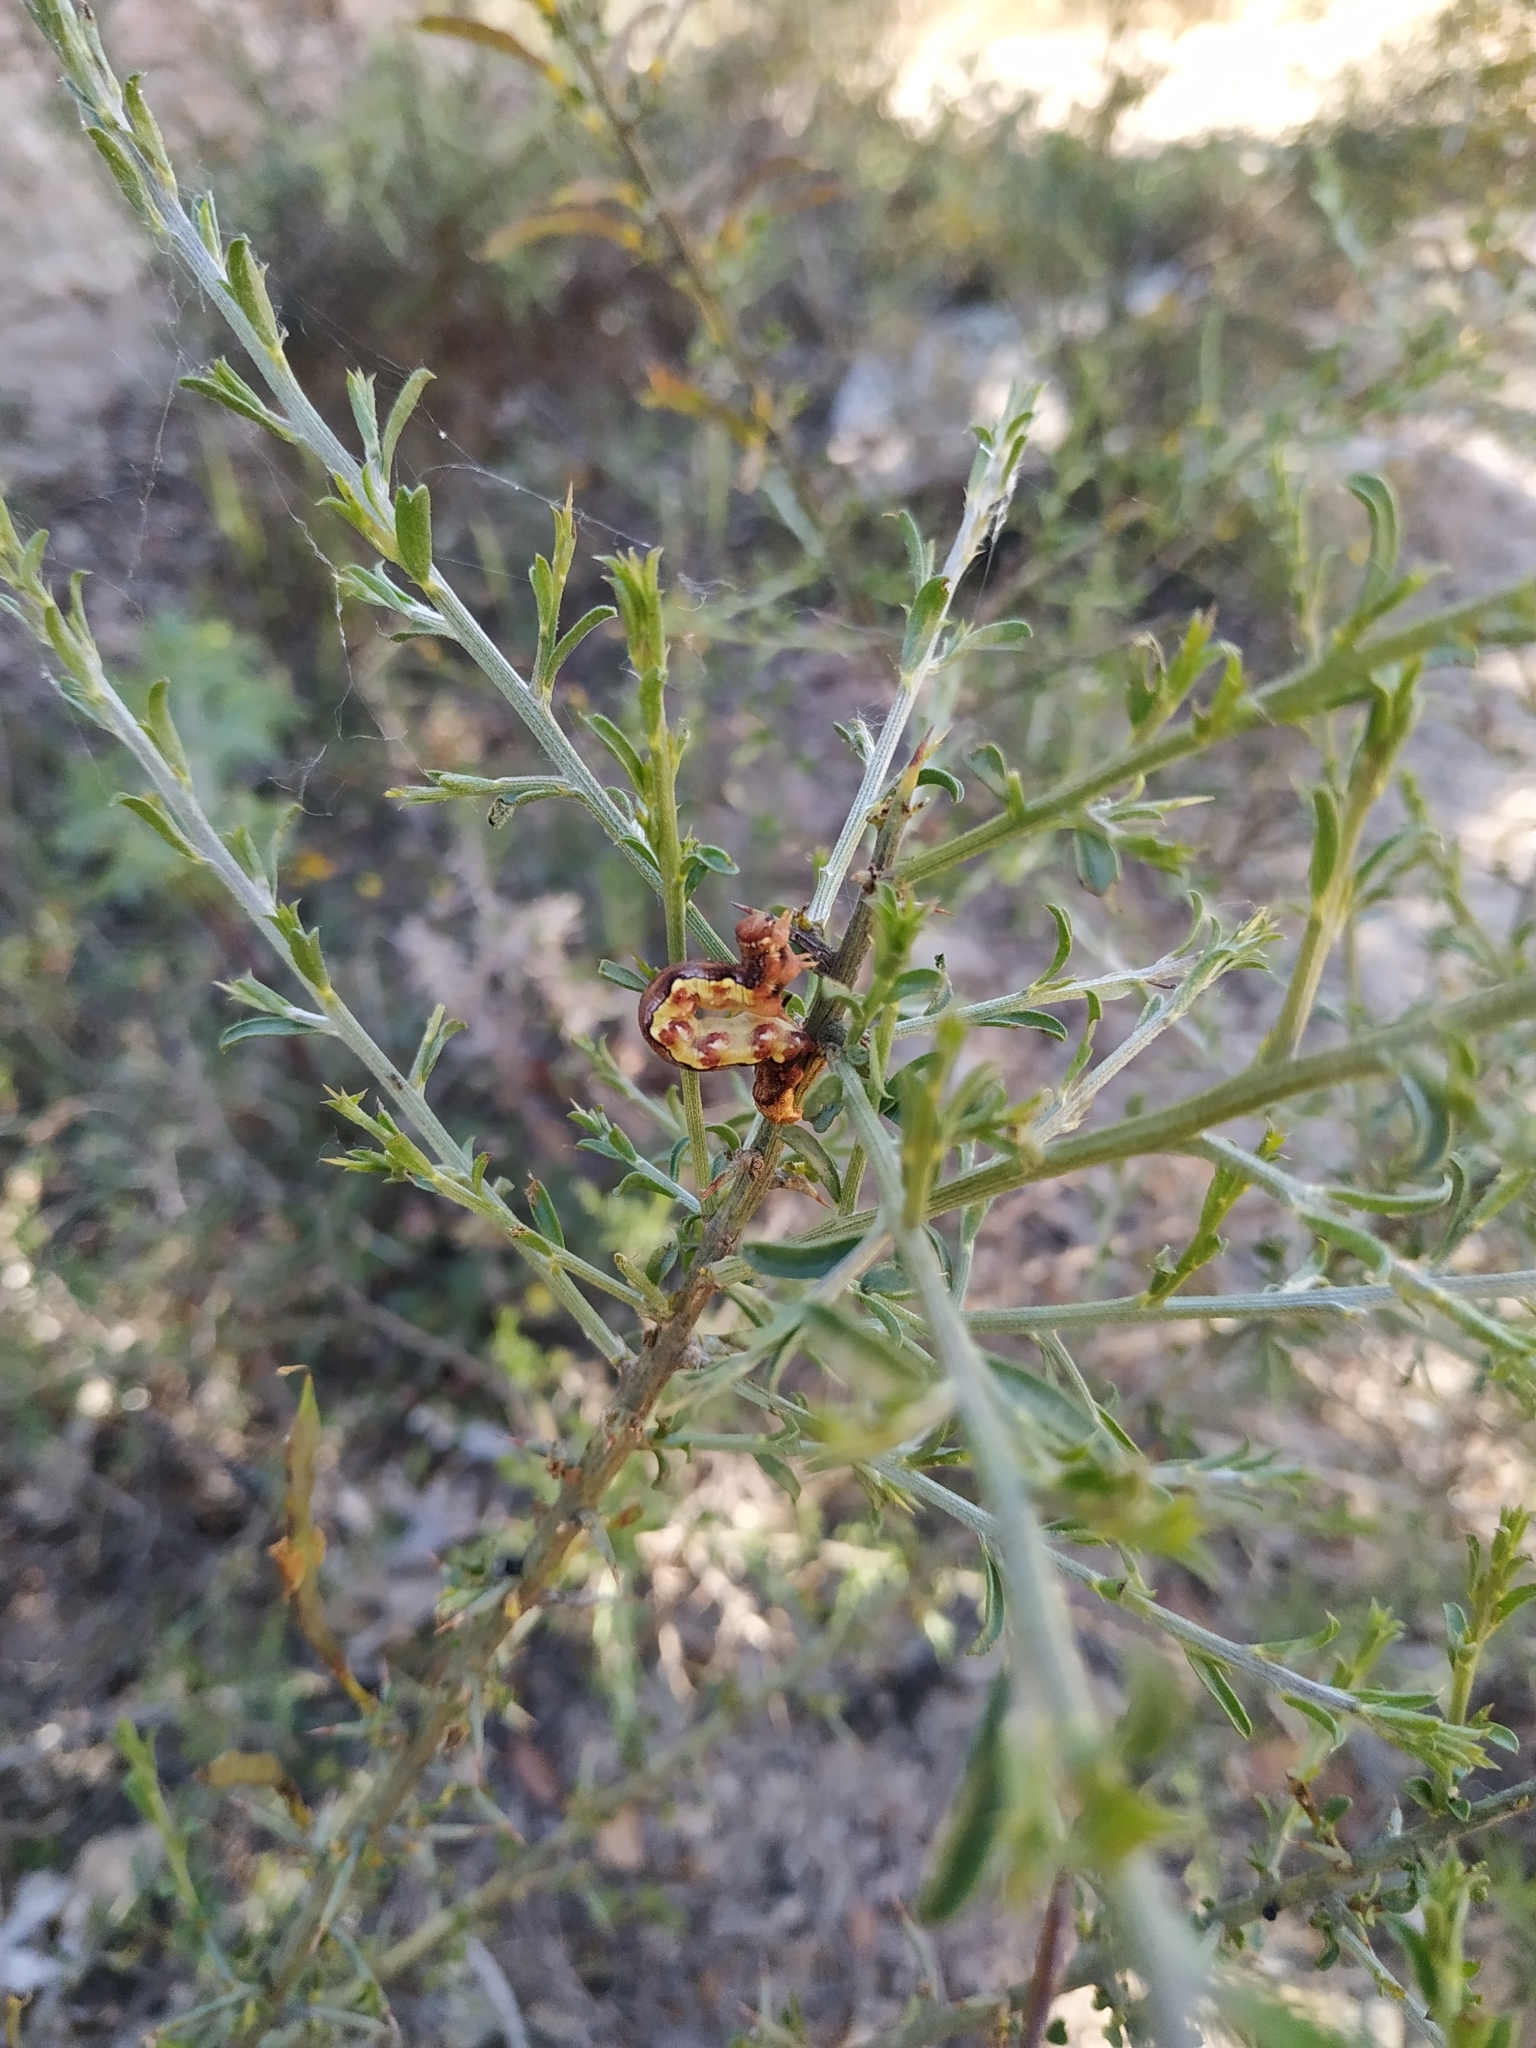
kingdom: Animalia
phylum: Arthropoda
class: Insecta
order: Lepidoptera
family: Geometridae
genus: Erannis
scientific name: Erannis defoliaria
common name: Mottled umber
